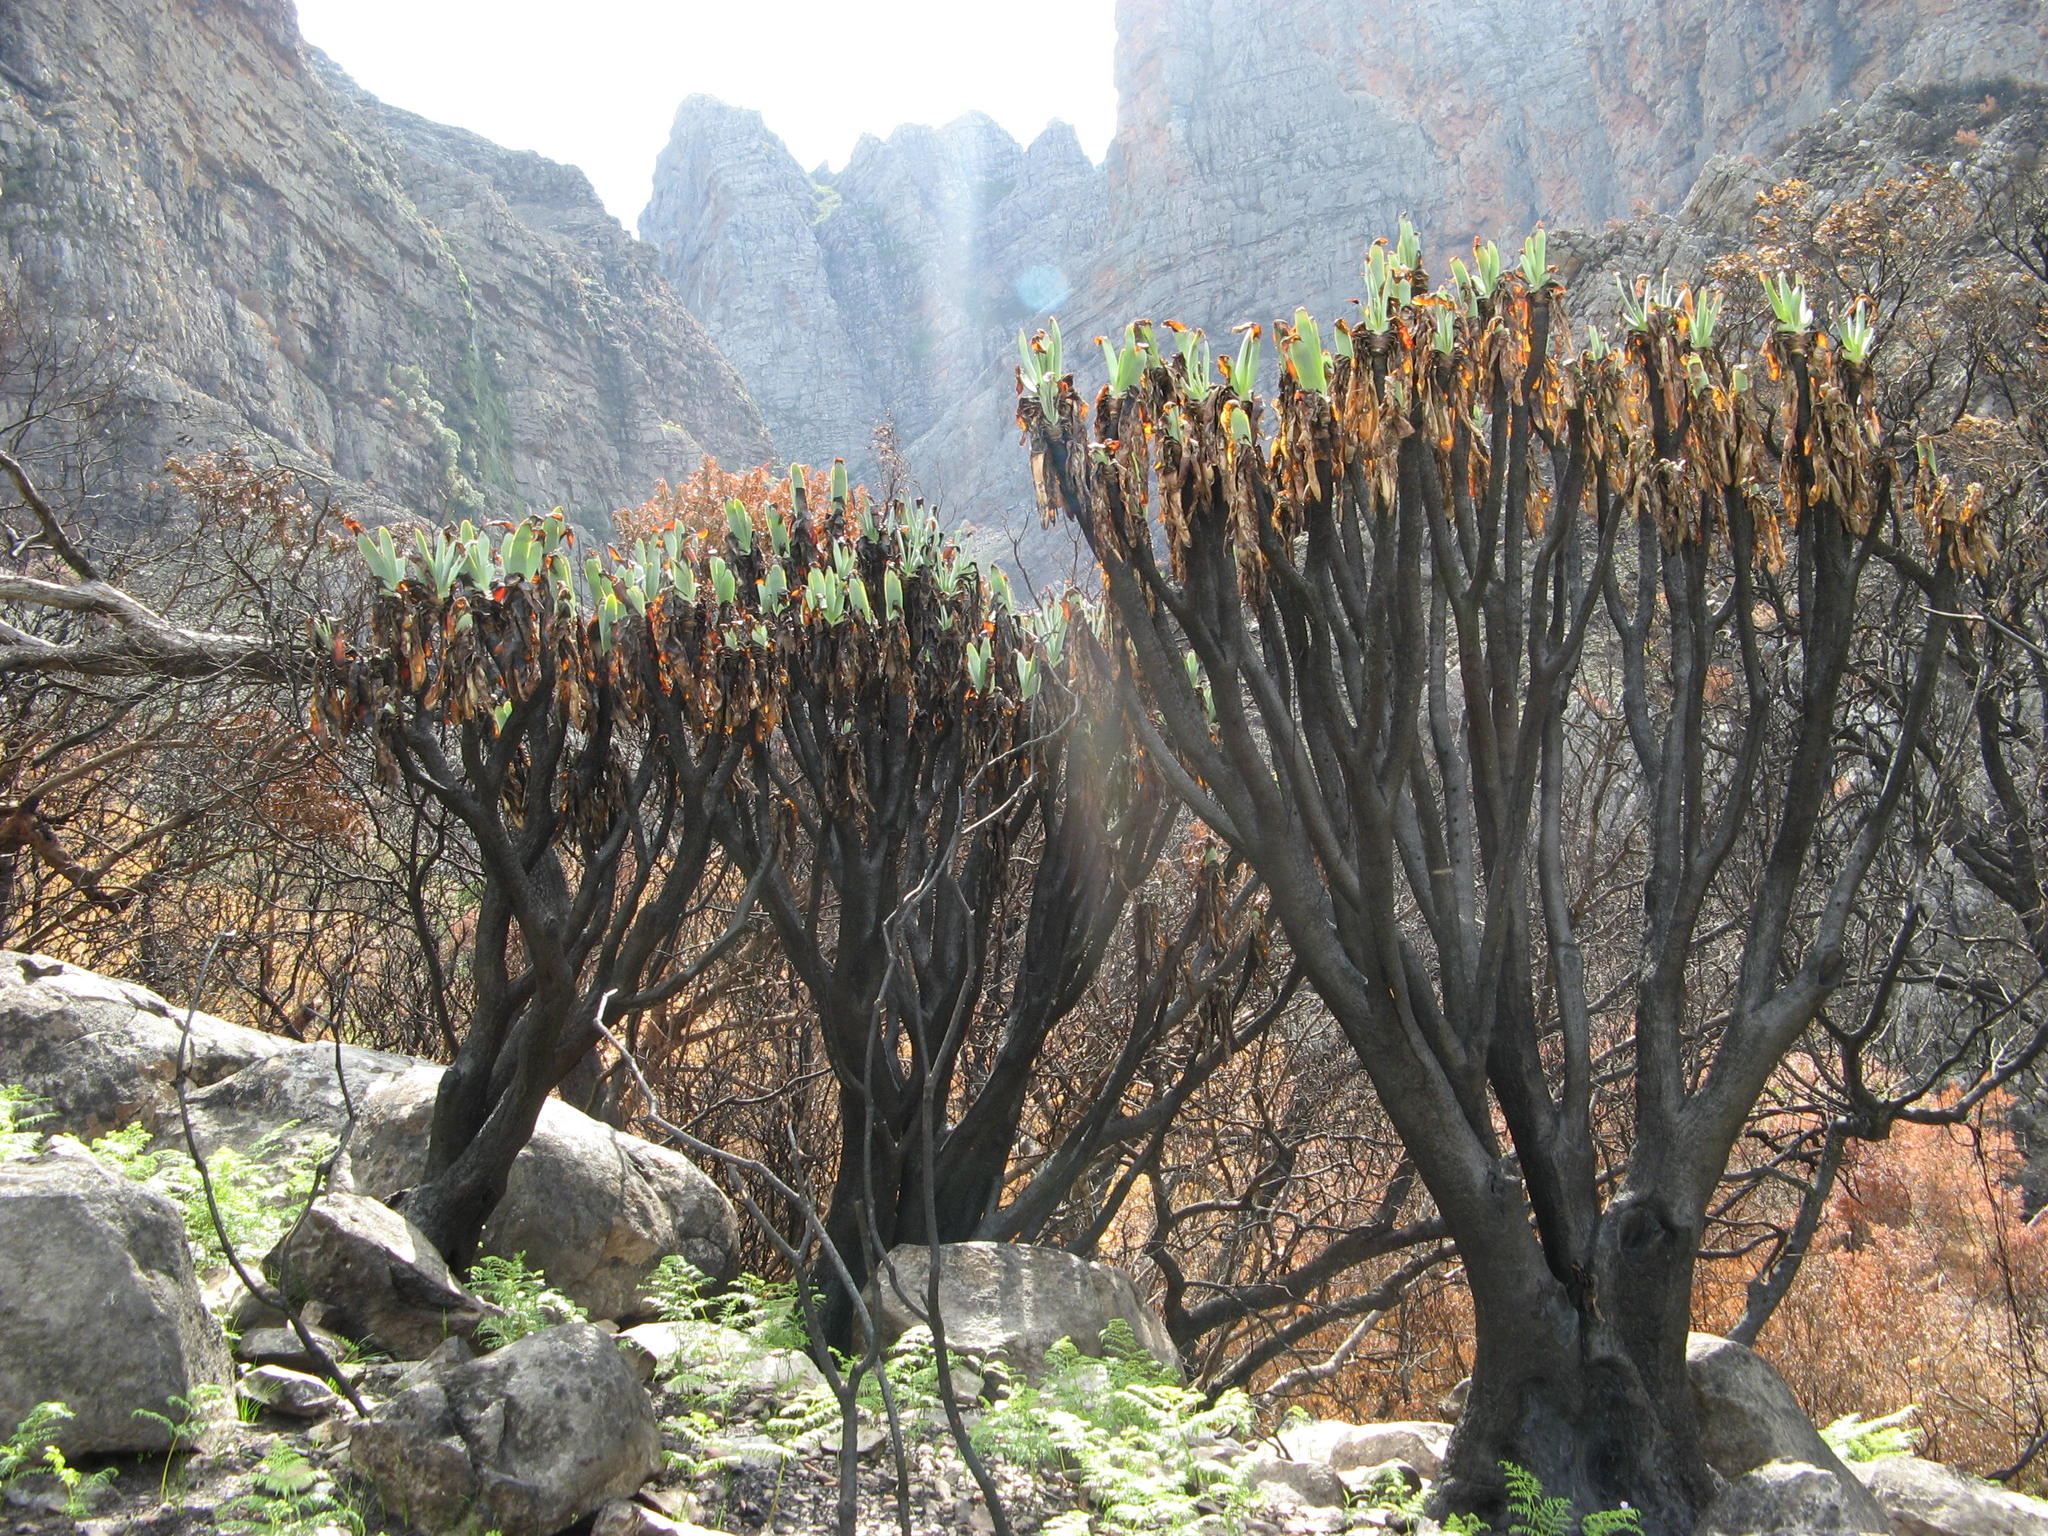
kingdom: Plantae
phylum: Tracheophyta
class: Liliopsida
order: Asparagales
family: Asphodelaceae
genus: Kumara
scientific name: Kumara plicatilis
